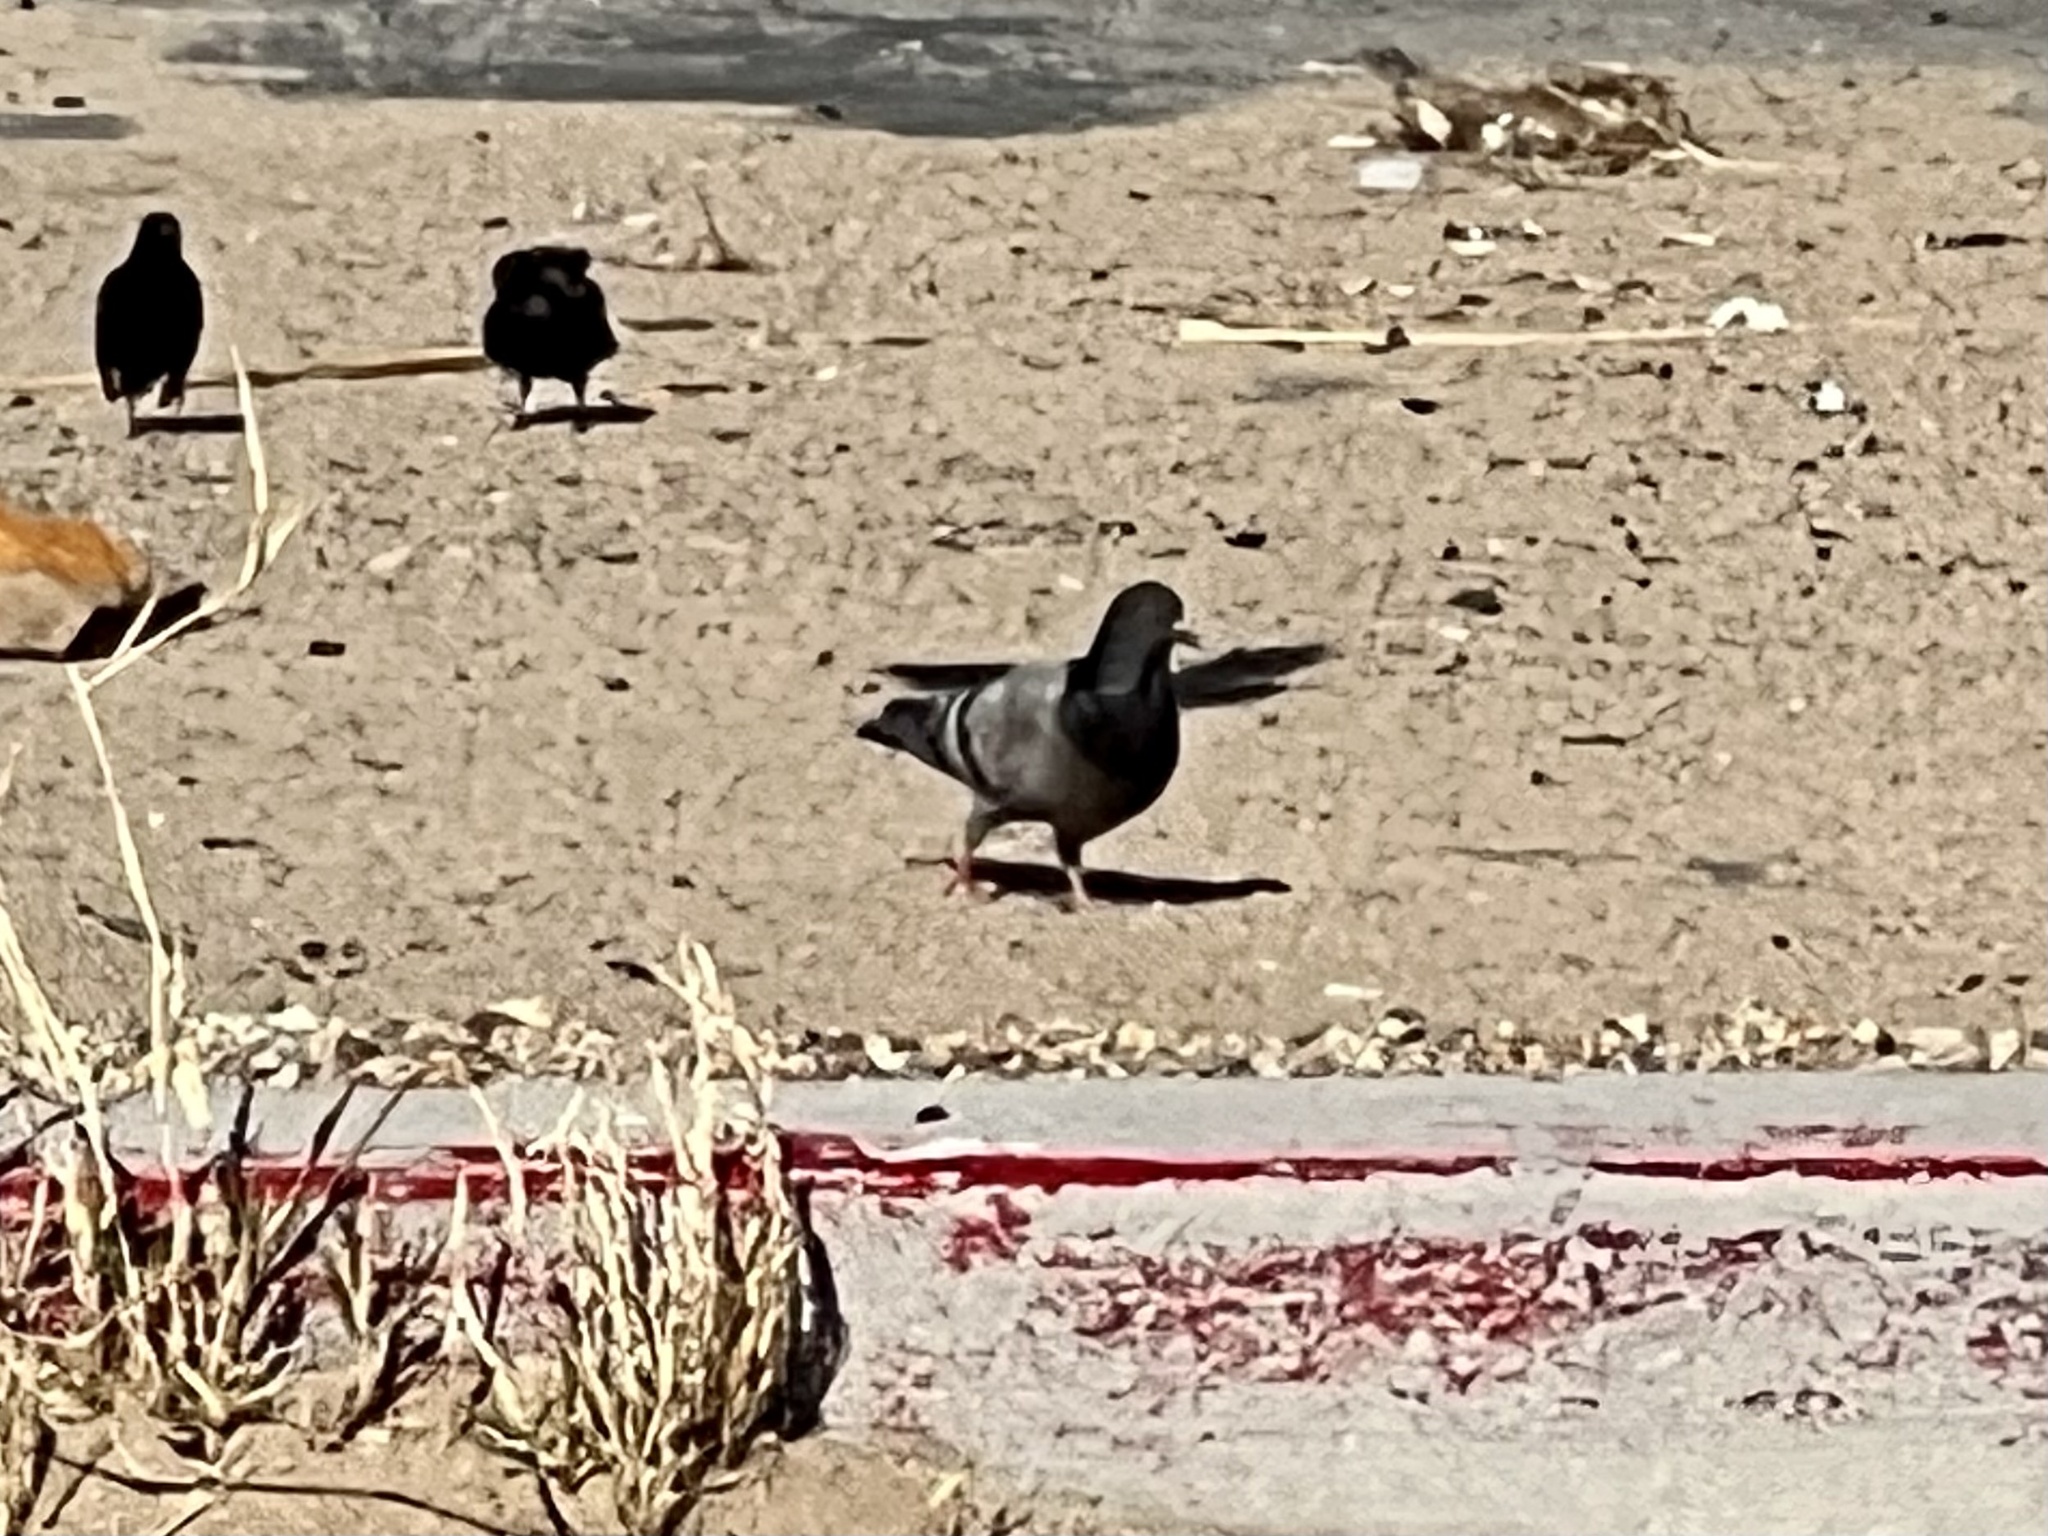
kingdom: Animalia
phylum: Chordata
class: Aves
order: Columbiformes
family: Columbidae
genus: Columba
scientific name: Columba livia
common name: Rock pigeon
